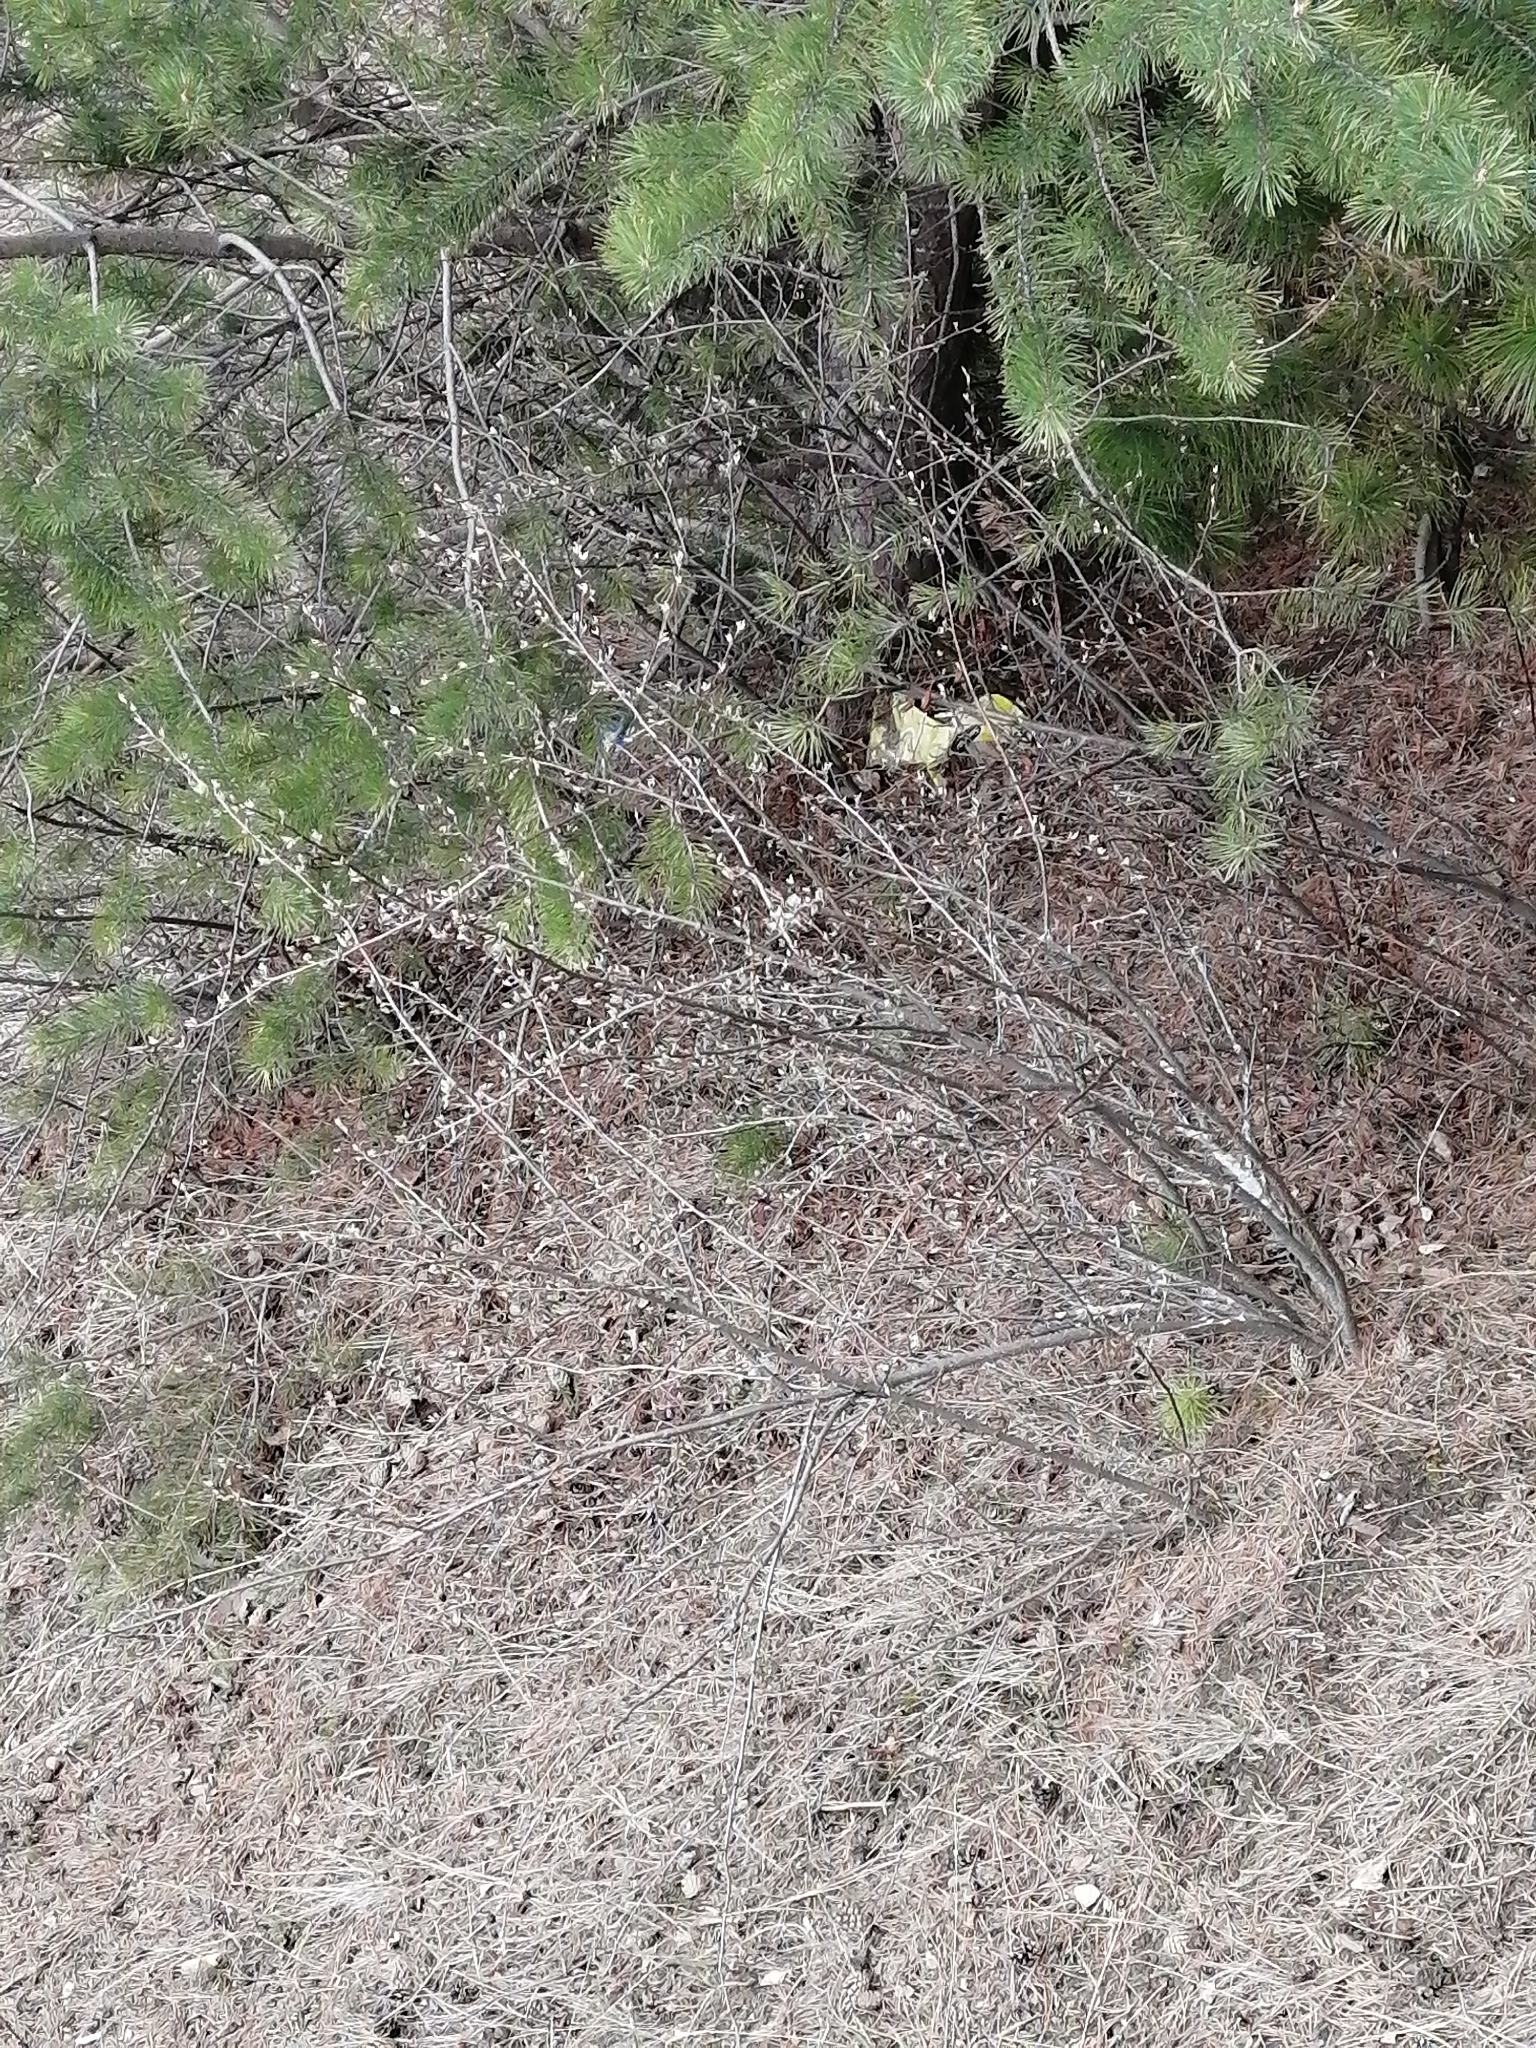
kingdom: Plantae
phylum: Tracheophyta
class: Magnoliopsida
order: Rosales
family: Rosaceae
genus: Cotoneaster
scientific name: Cotoneaster melanocarpus
